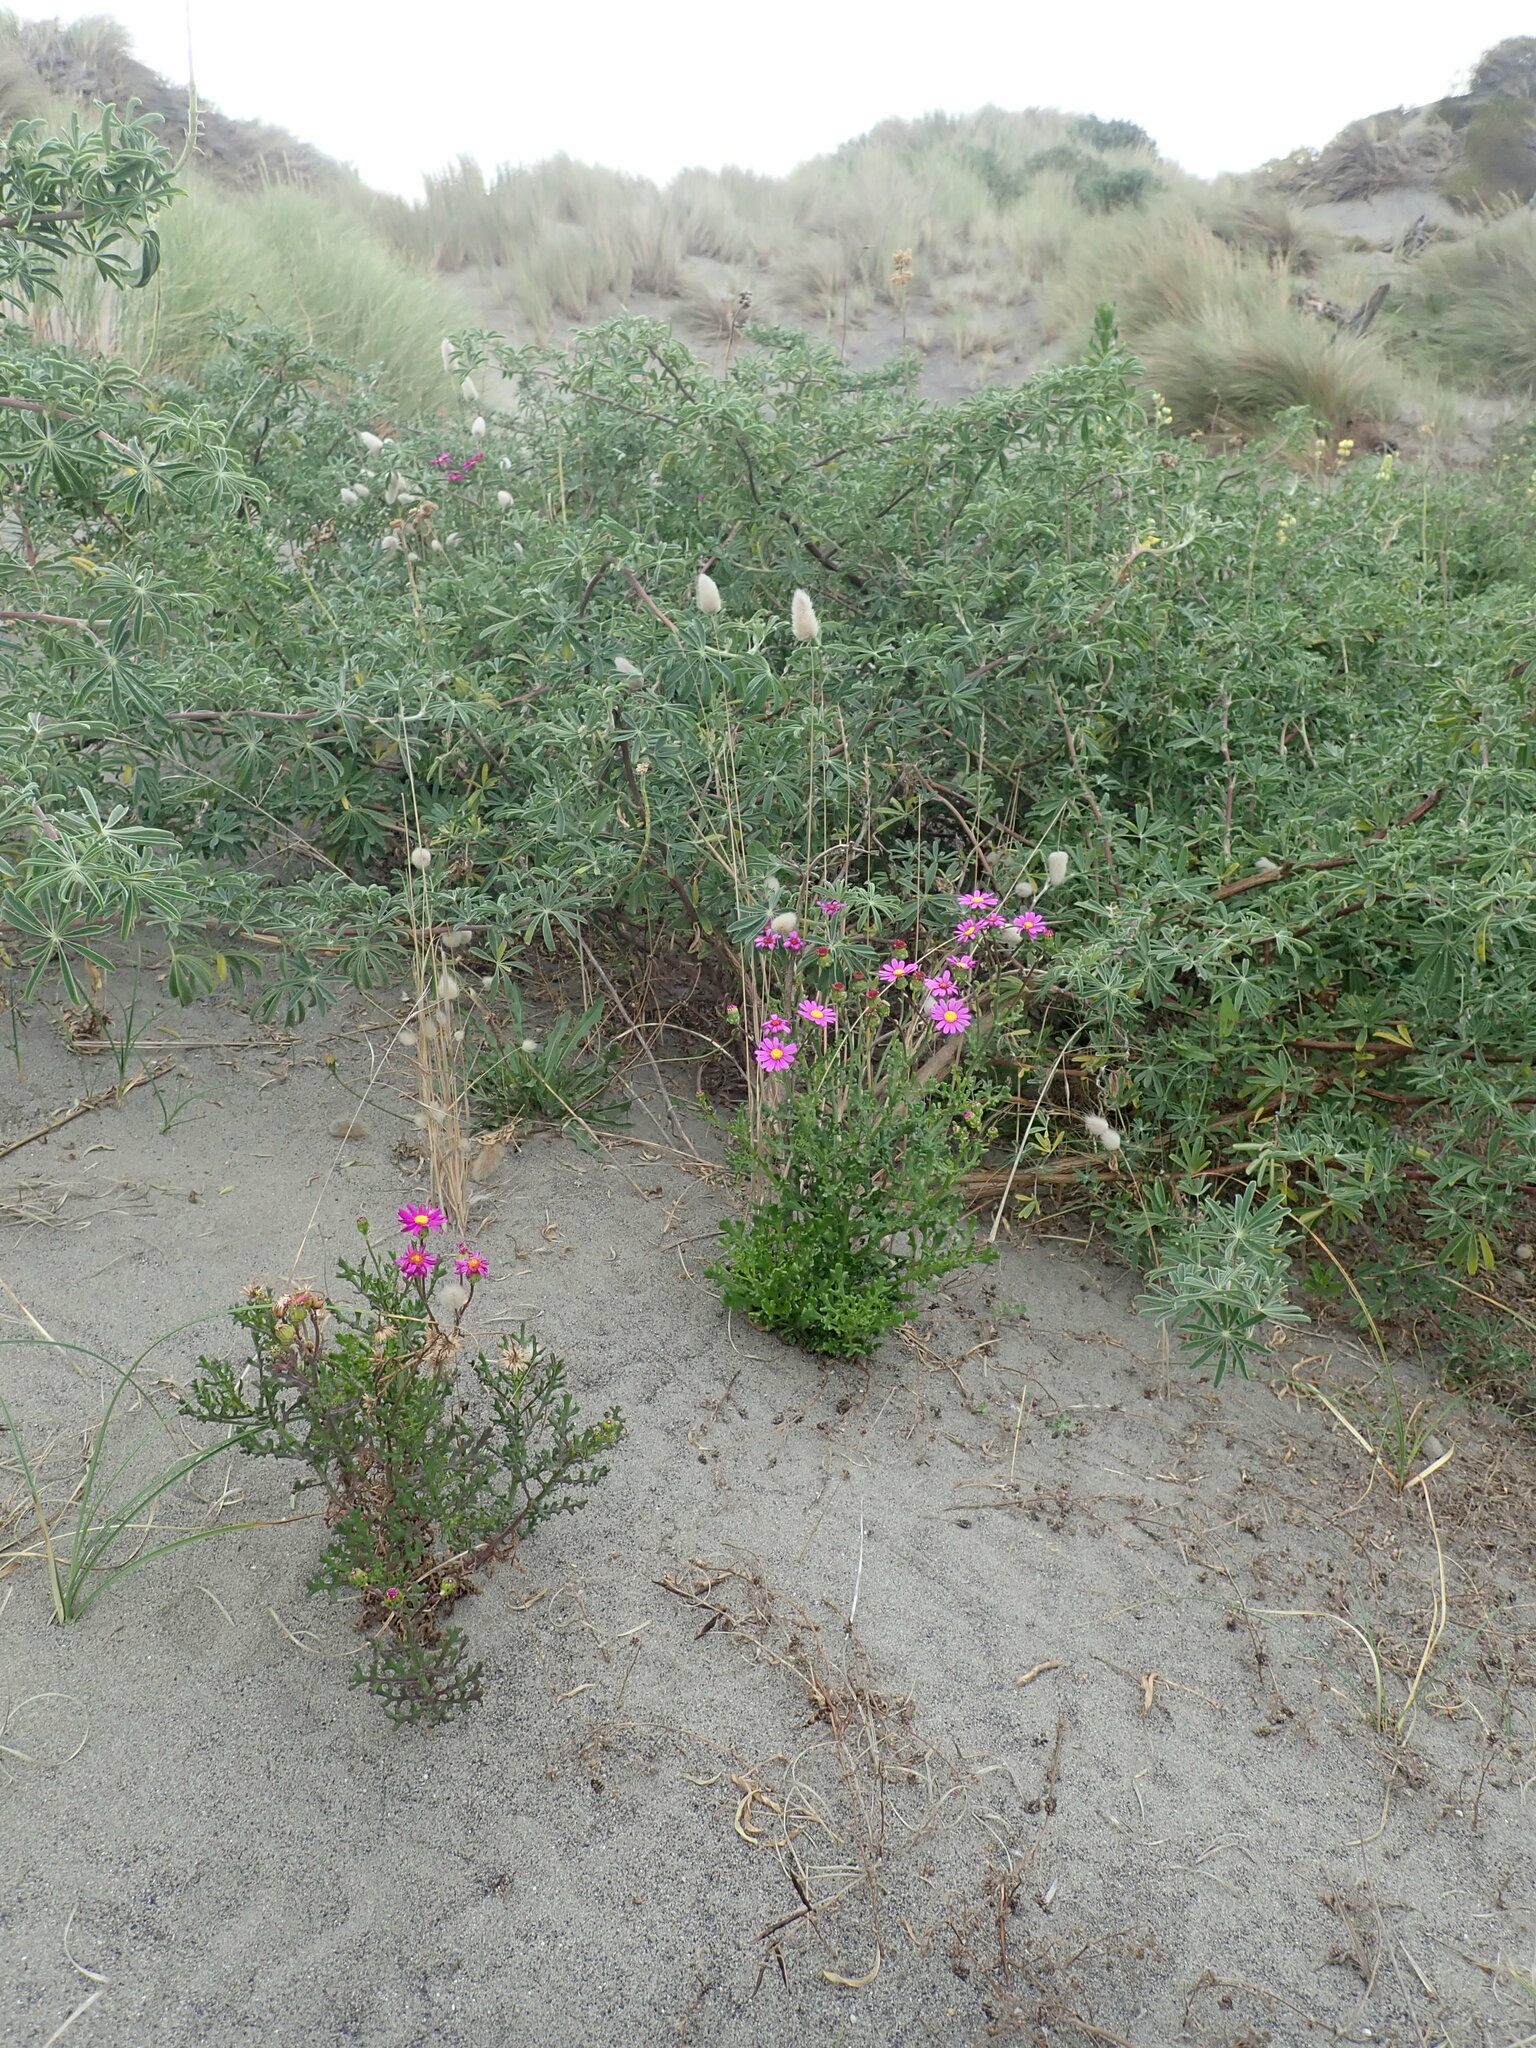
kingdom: Plantae
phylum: Tracheophyta
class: Magnoliopsida
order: Asterales
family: Asteraceae
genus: Senecio
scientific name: Senecio elegans
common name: Purple groundsel
